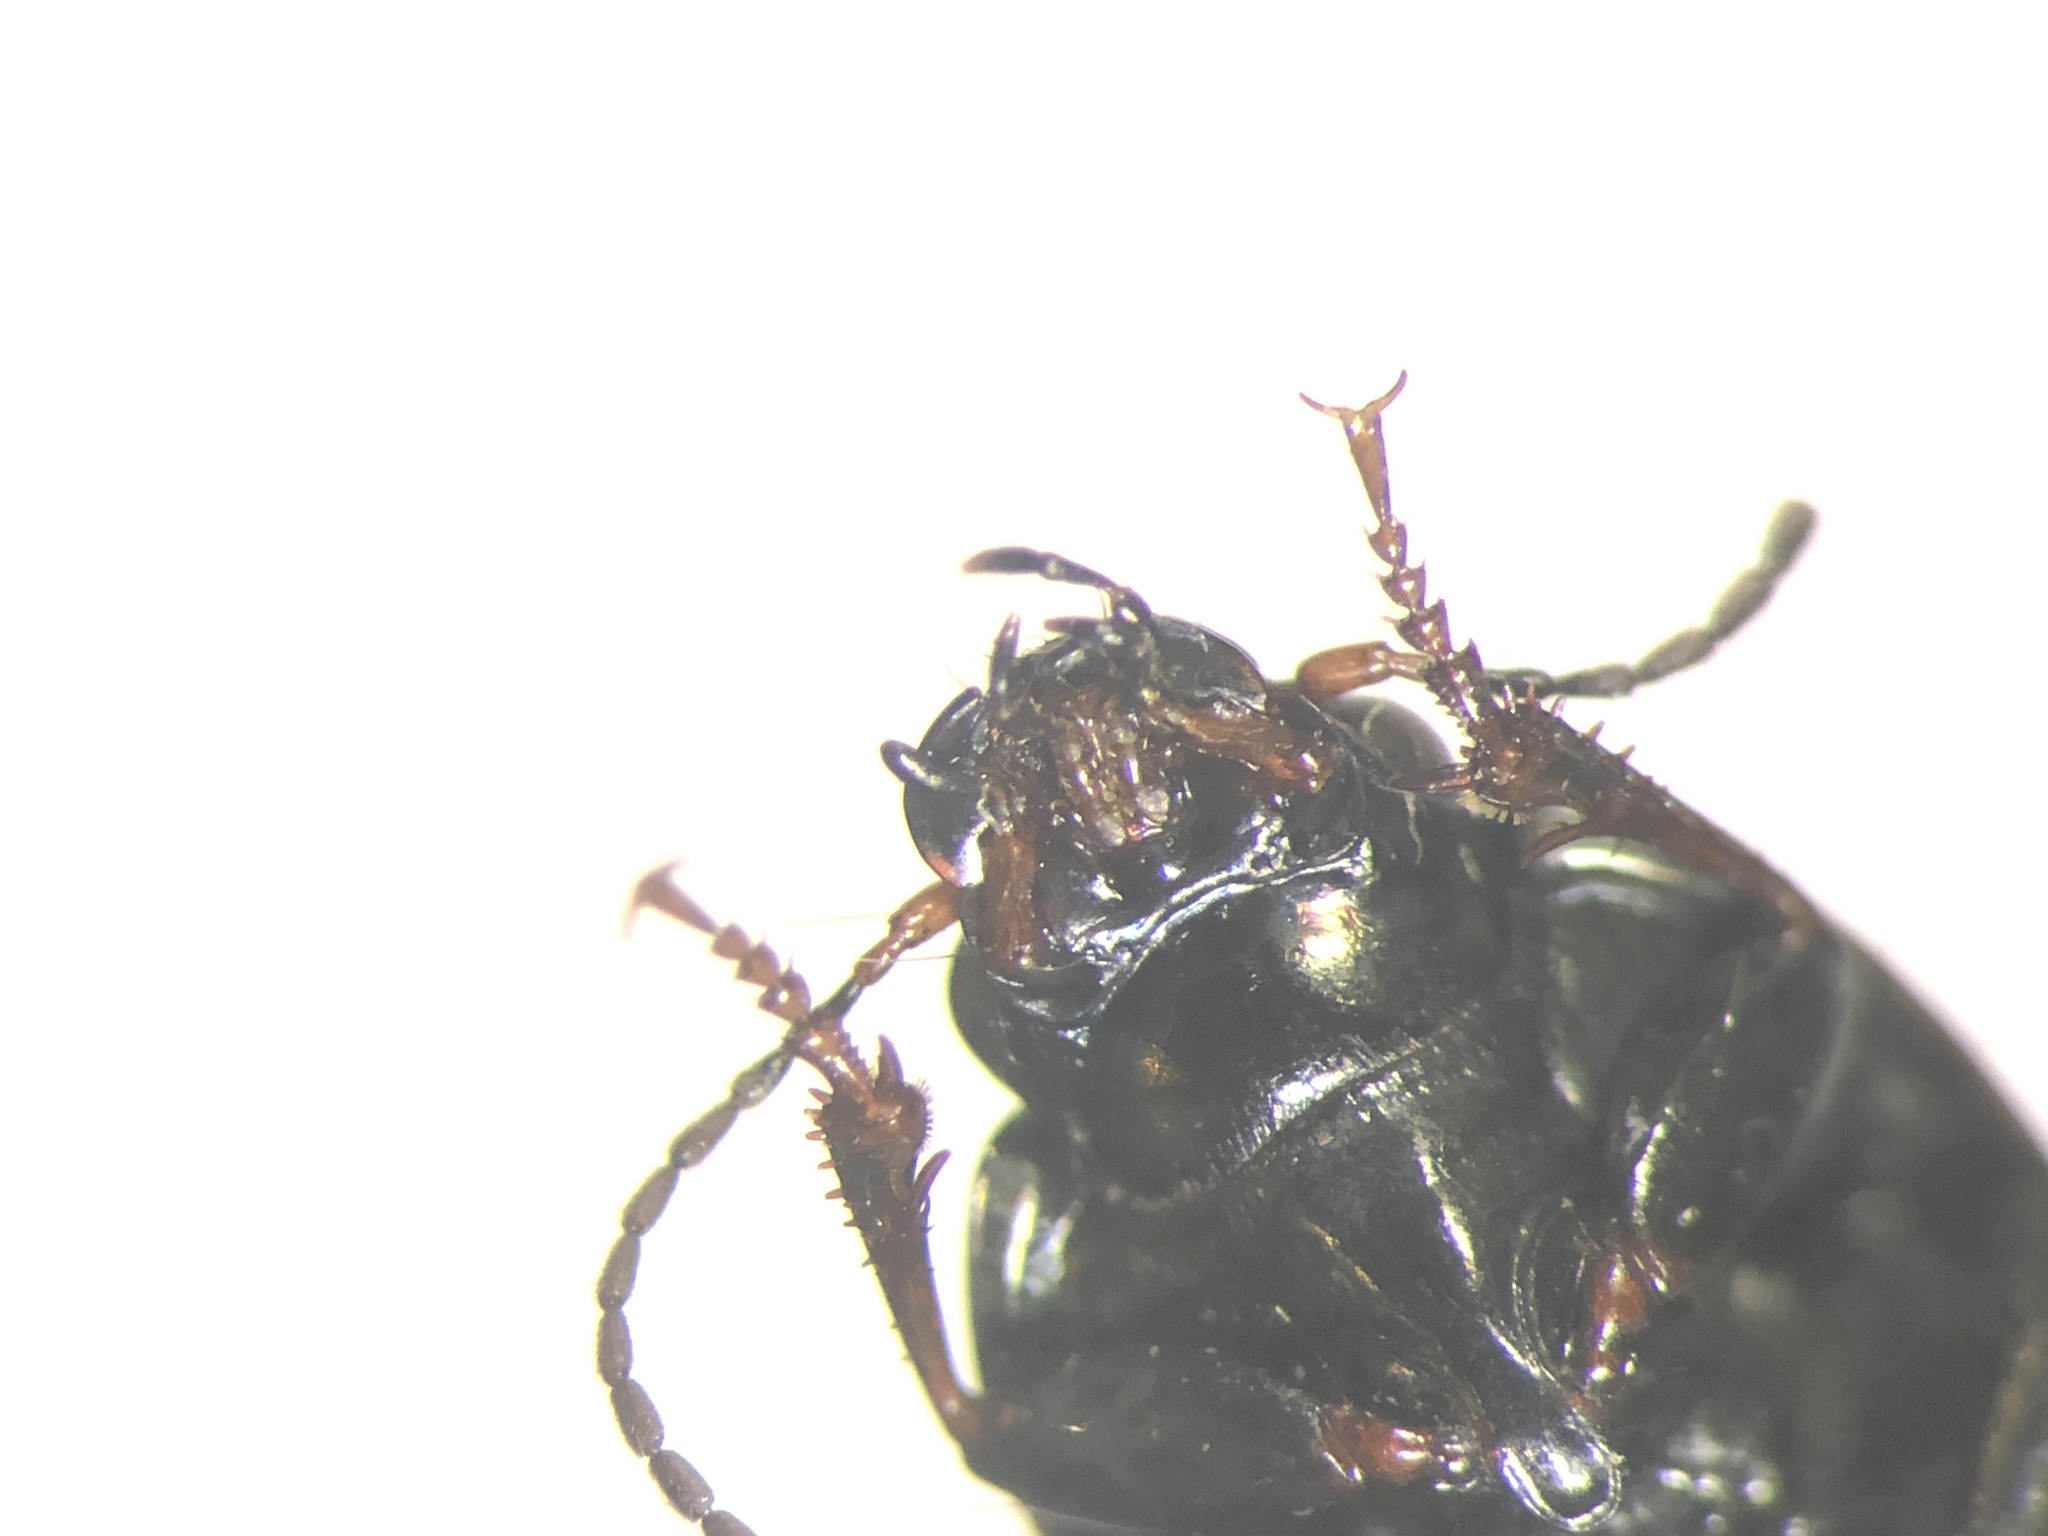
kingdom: Animalia
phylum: Arthropoda
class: Insecta
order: Coleoptera
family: Carabidae
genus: Amara
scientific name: Amara patruelis
